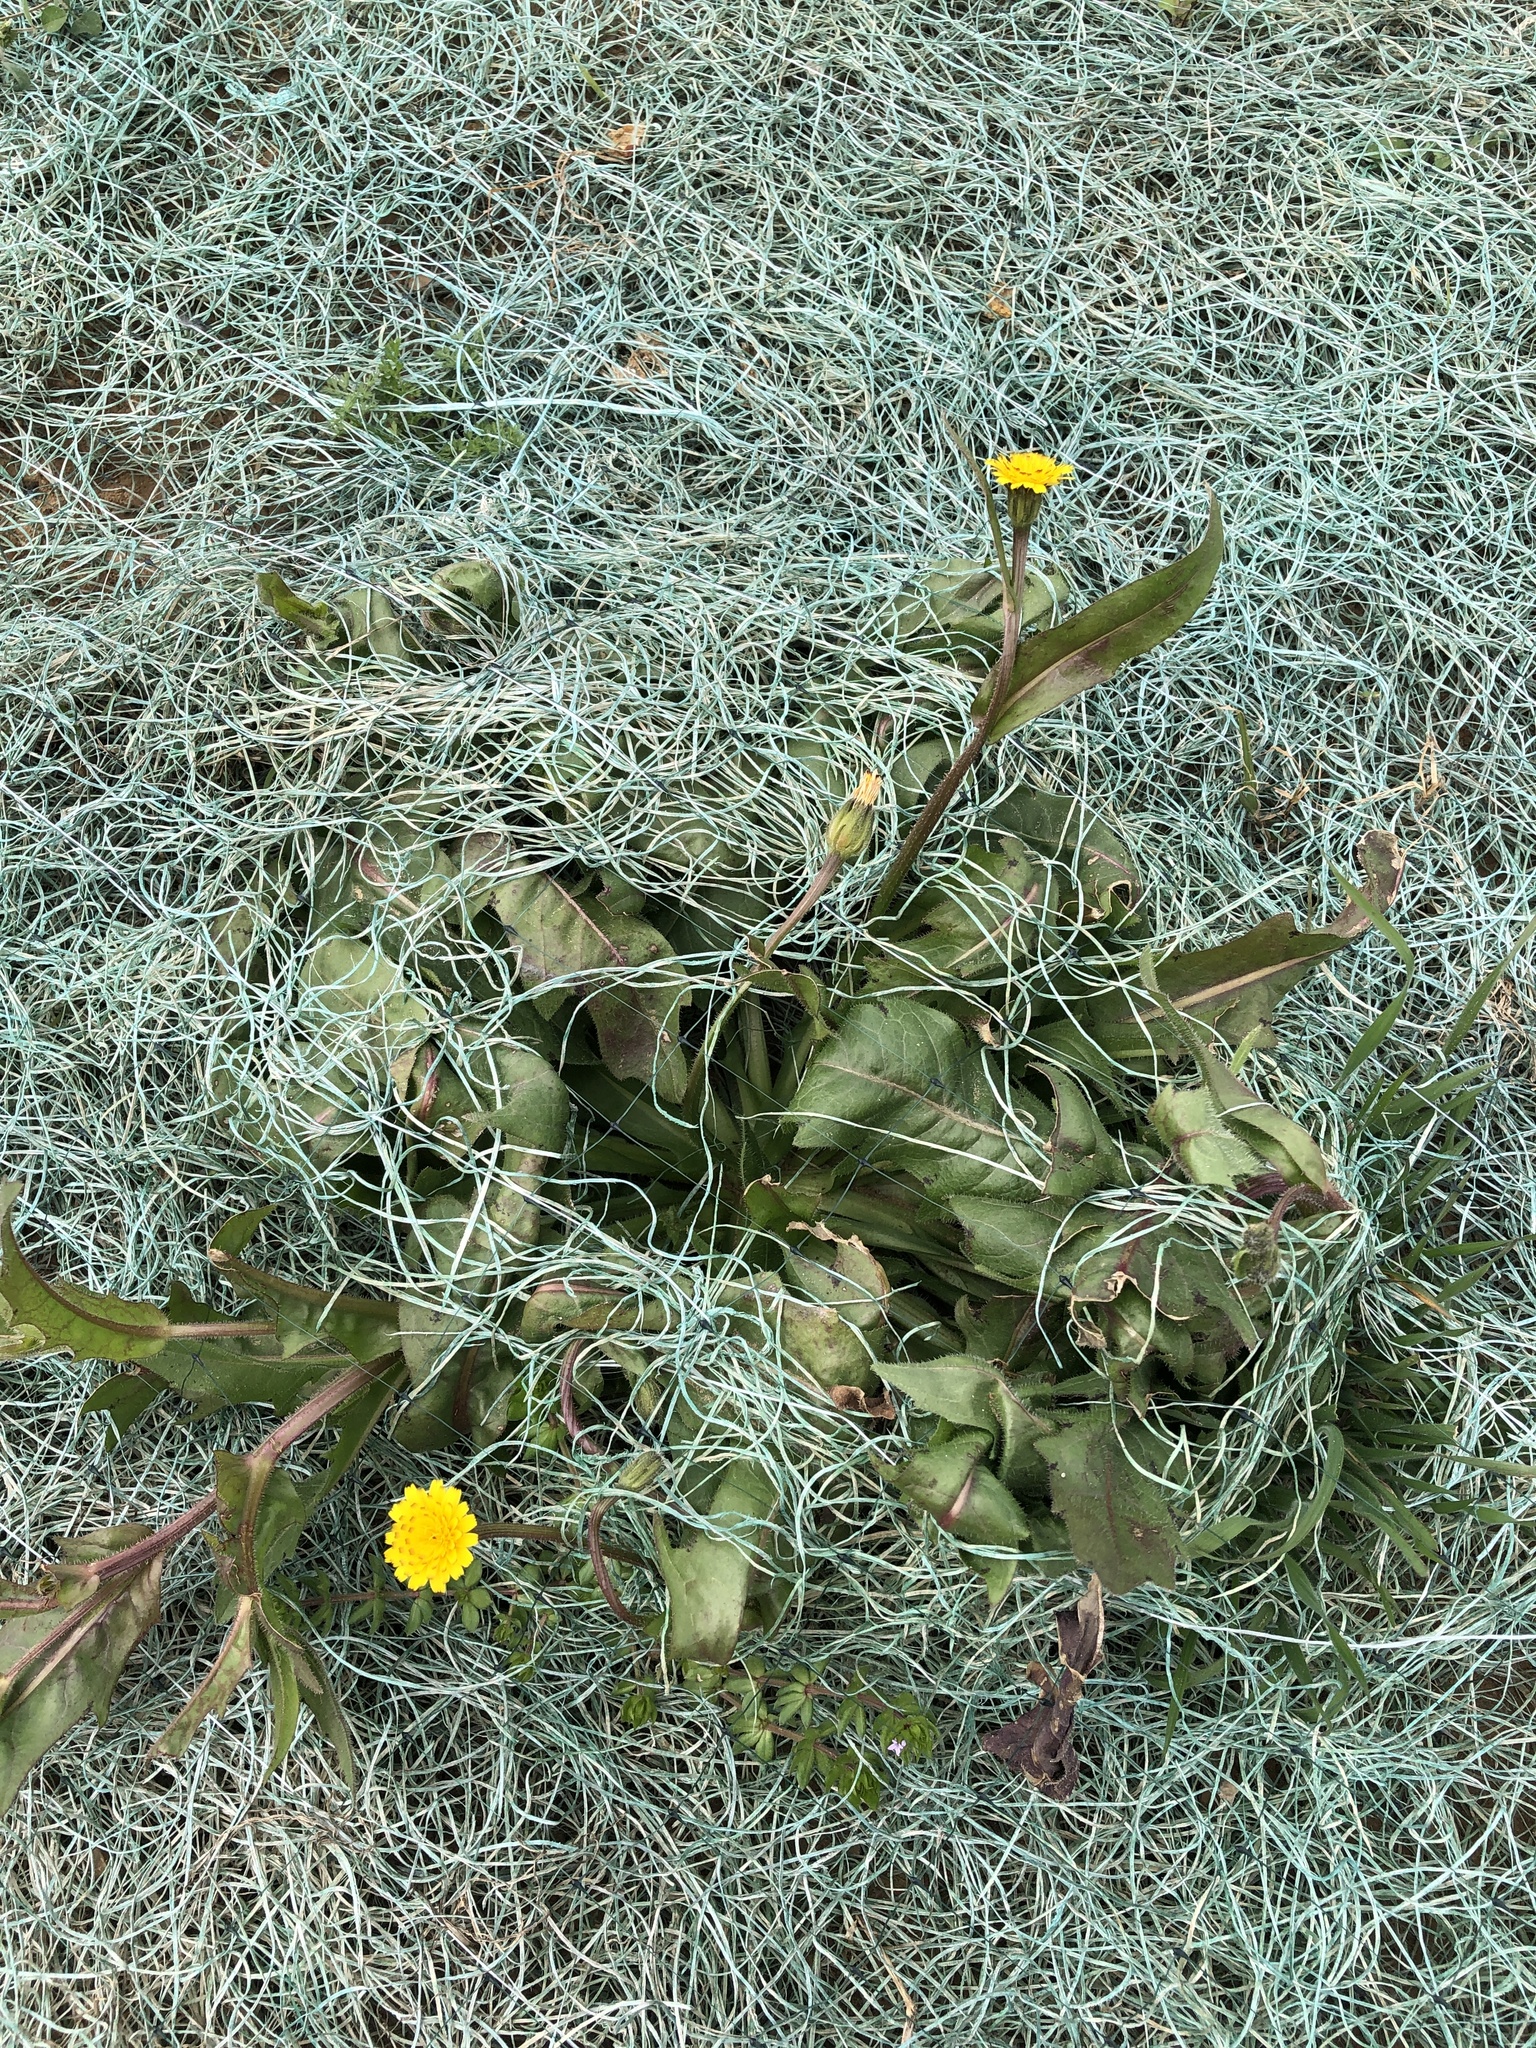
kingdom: Plantae
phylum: Tracheophyta
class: Magnoliopsida
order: Asterales
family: Asteraceae
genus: Hedypnois
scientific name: Hedypnois rhagadioloides
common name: Cretan weed
